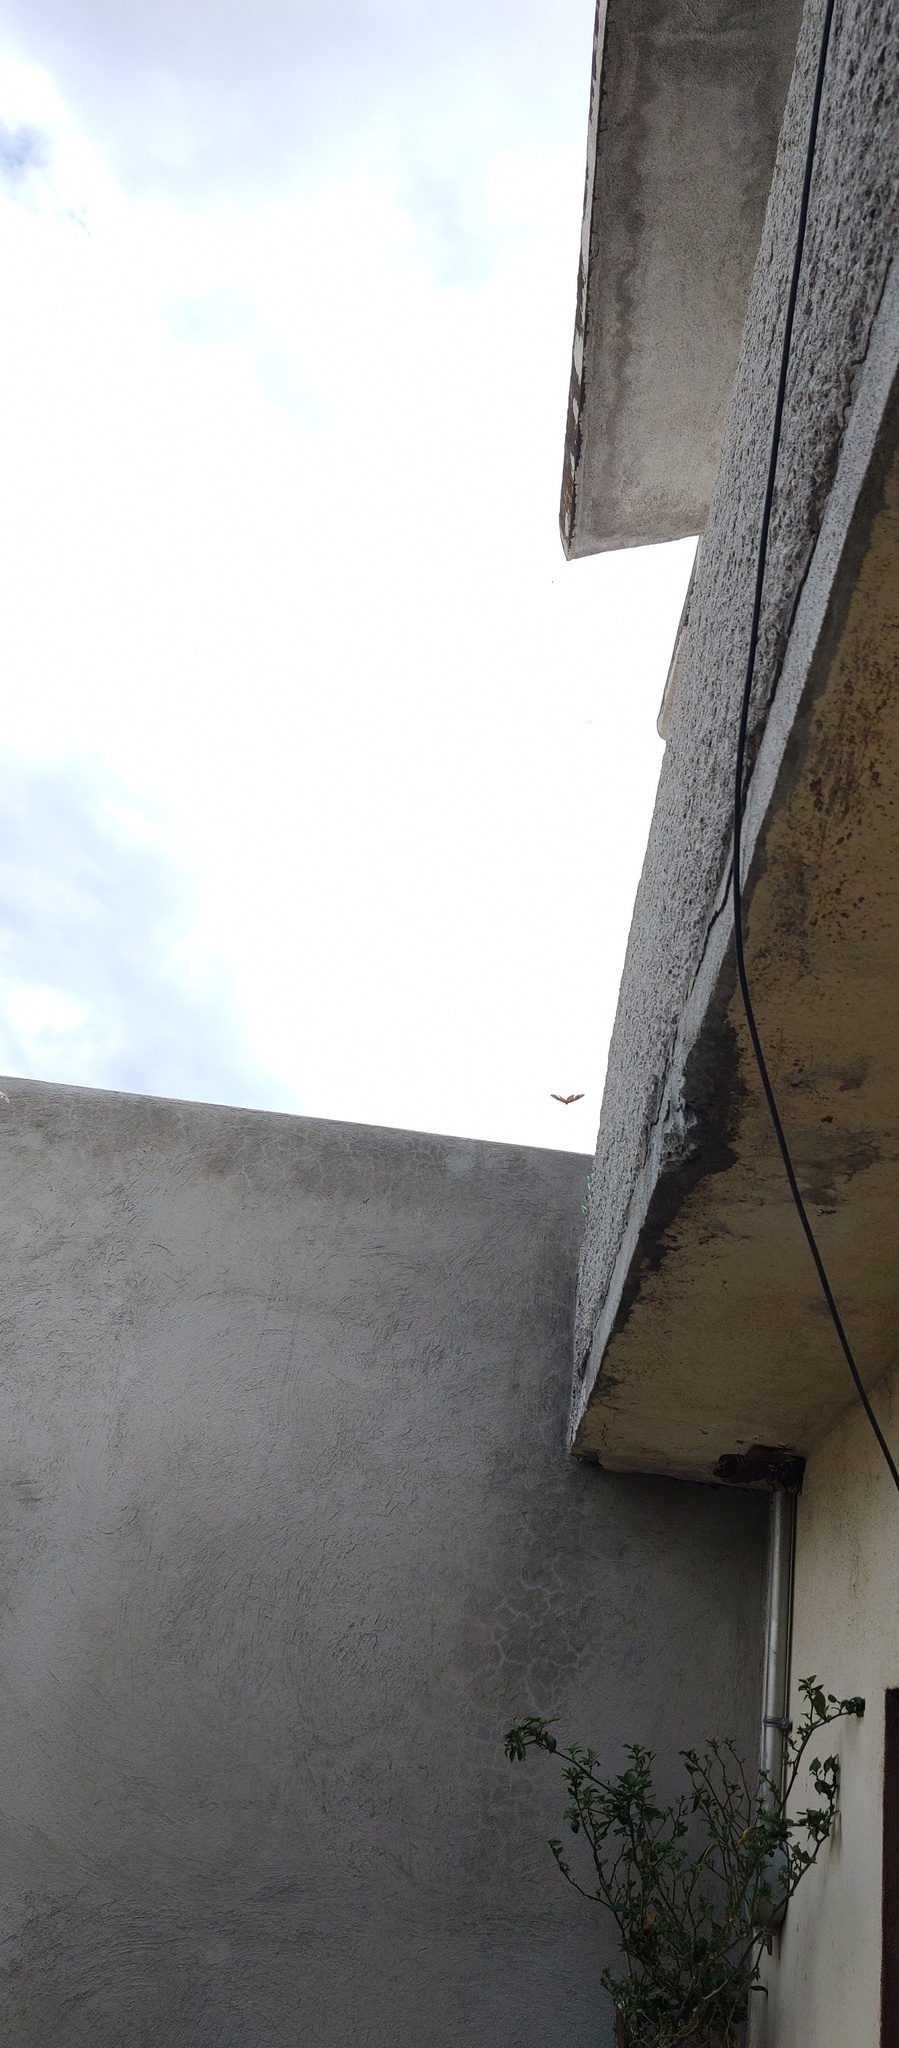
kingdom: Animalia
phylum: Arthropoda
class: Insecta
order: Lepidoptera
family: Nymphalidae
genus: Danaus
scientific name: Danaus plexippus
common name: Monarch
